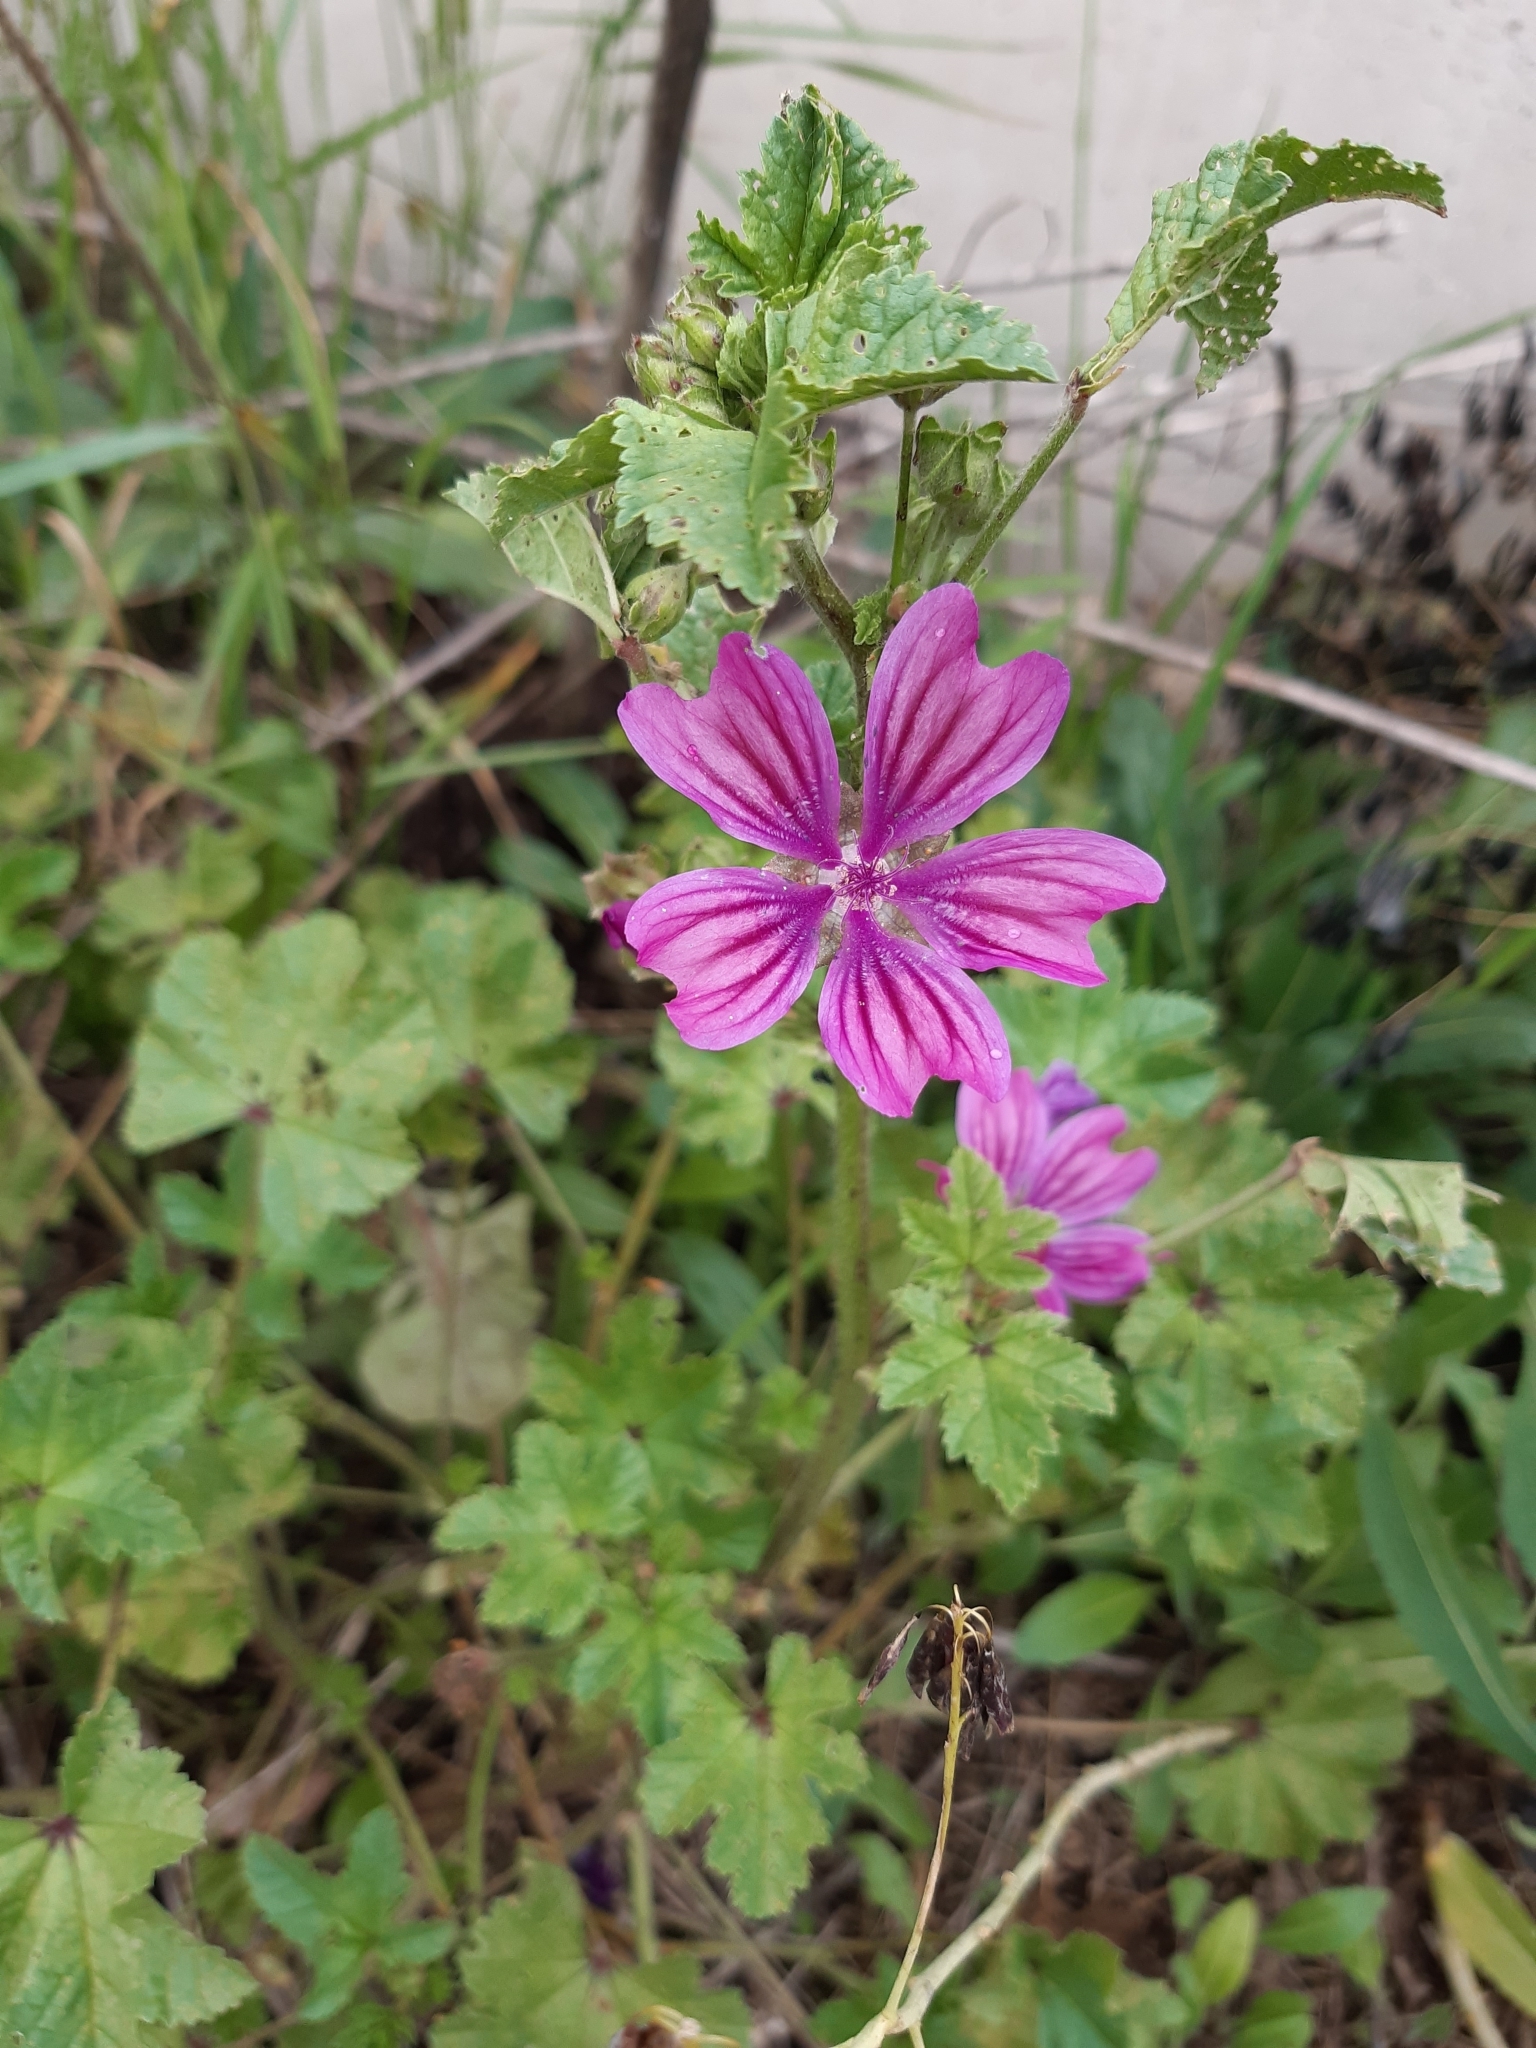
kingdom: Plantae
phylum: Tracheophyta
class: Magnoliopsida
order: Malvales
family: Malvaceae
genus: Malva
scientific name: Malva sylvestris
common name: Common mallow
